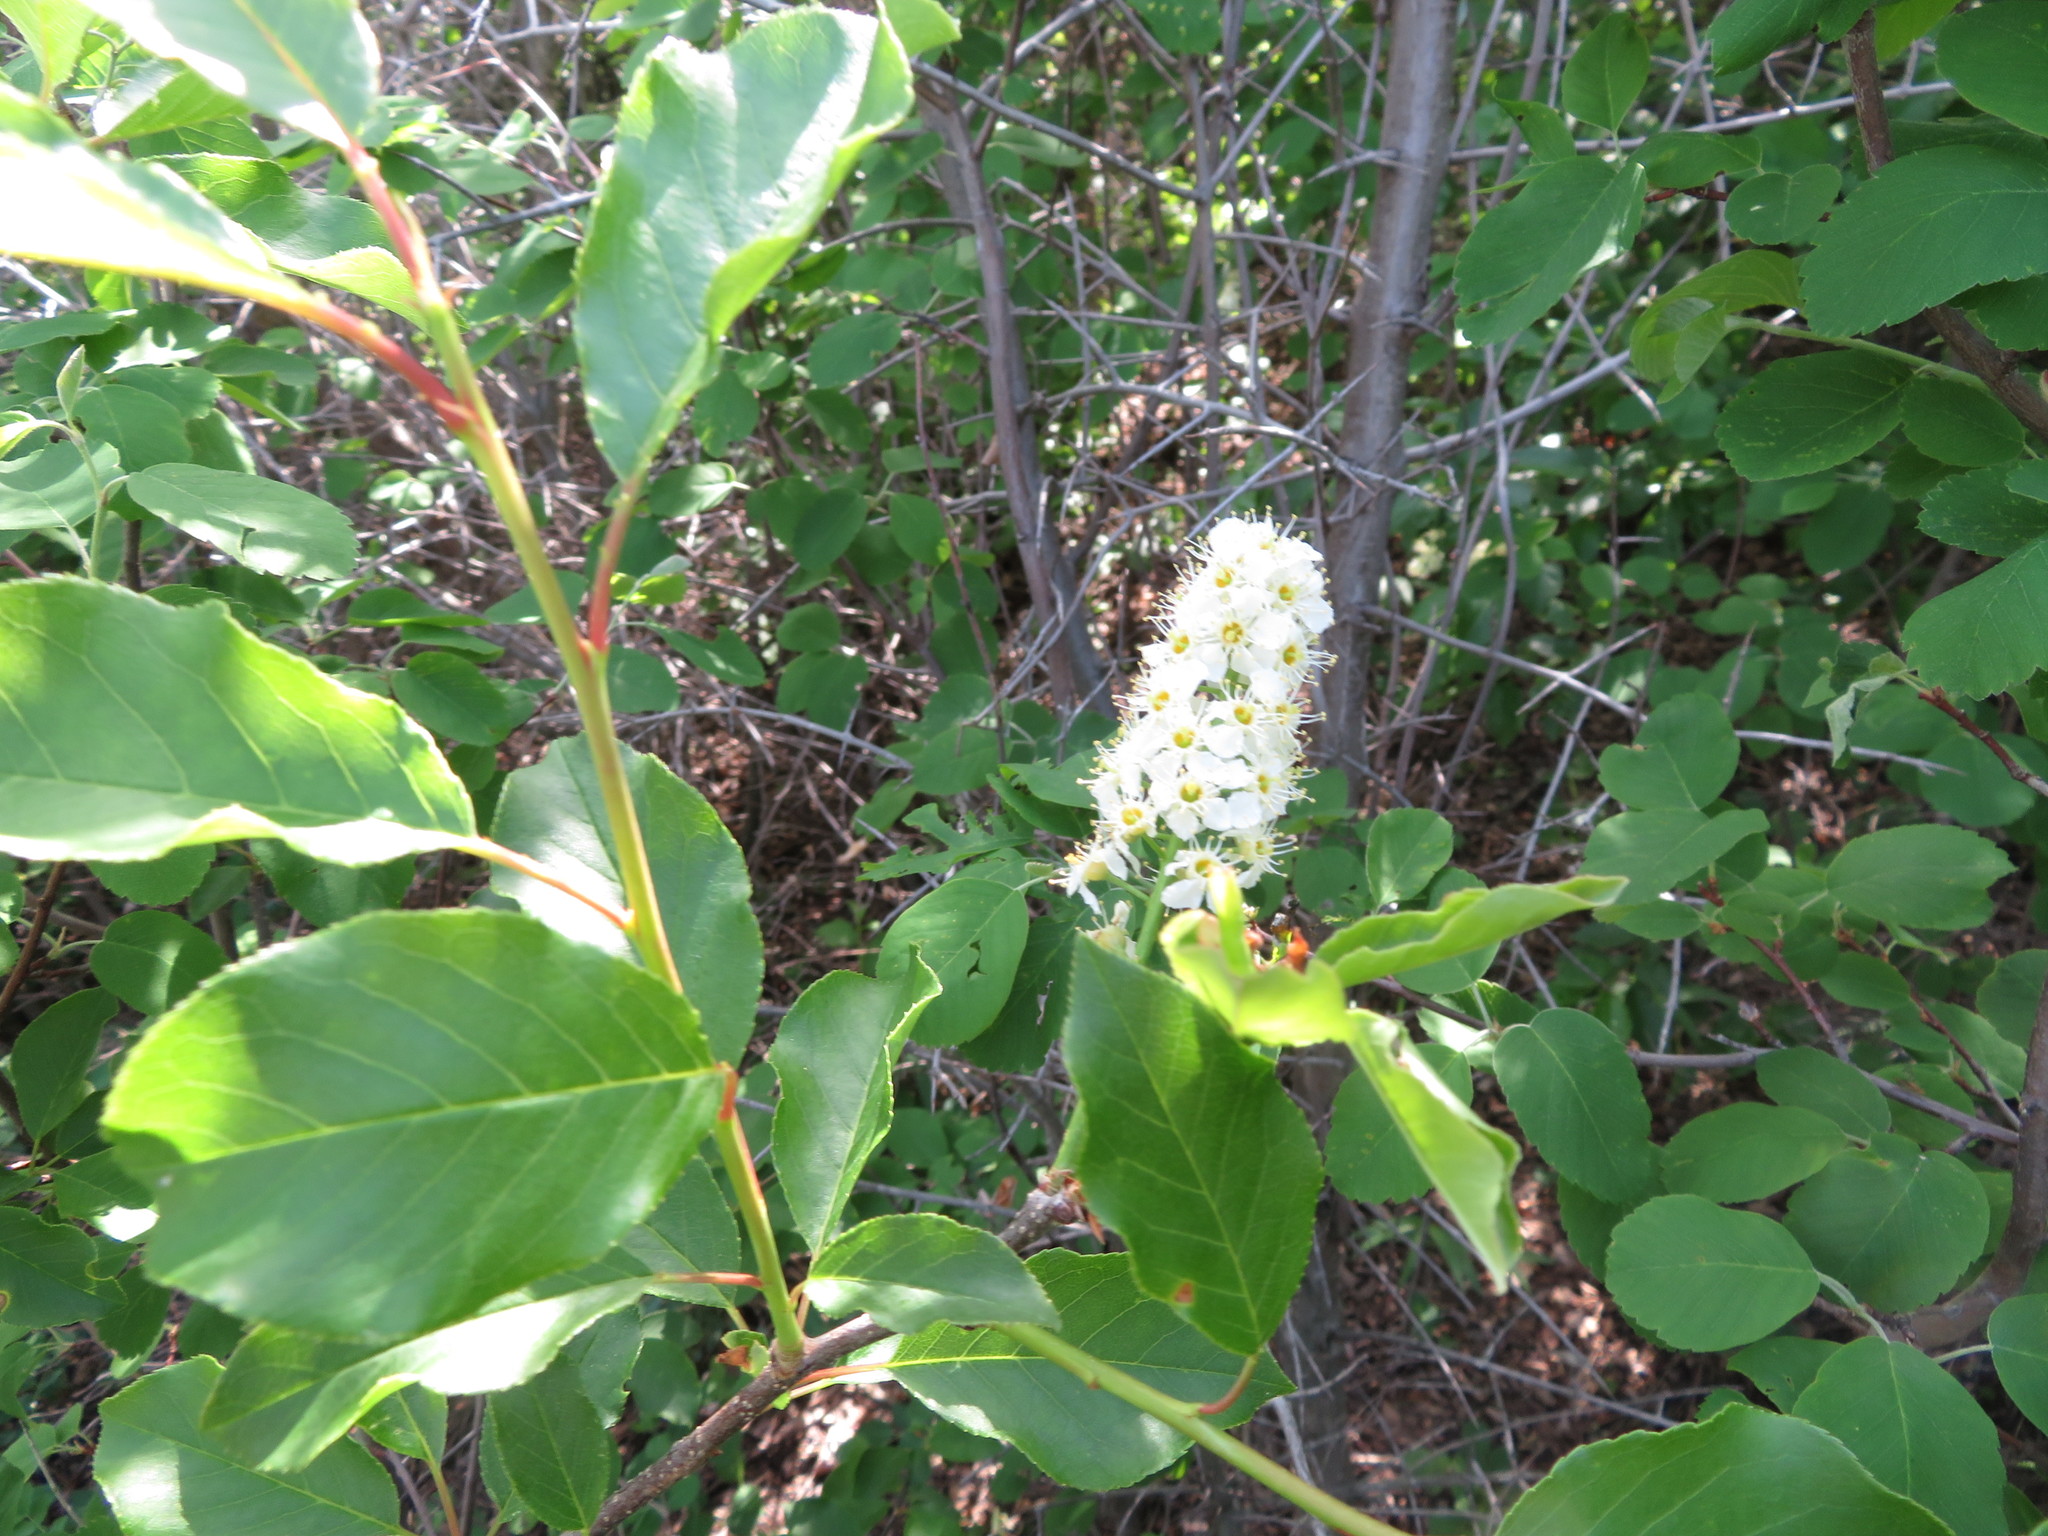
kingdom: Plantae
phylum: Tracheophyta
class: Magnoliopsida
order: Rosales
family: Rosaceae
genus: Prunus
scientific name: Prunus virginiana
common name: Chokecherry
